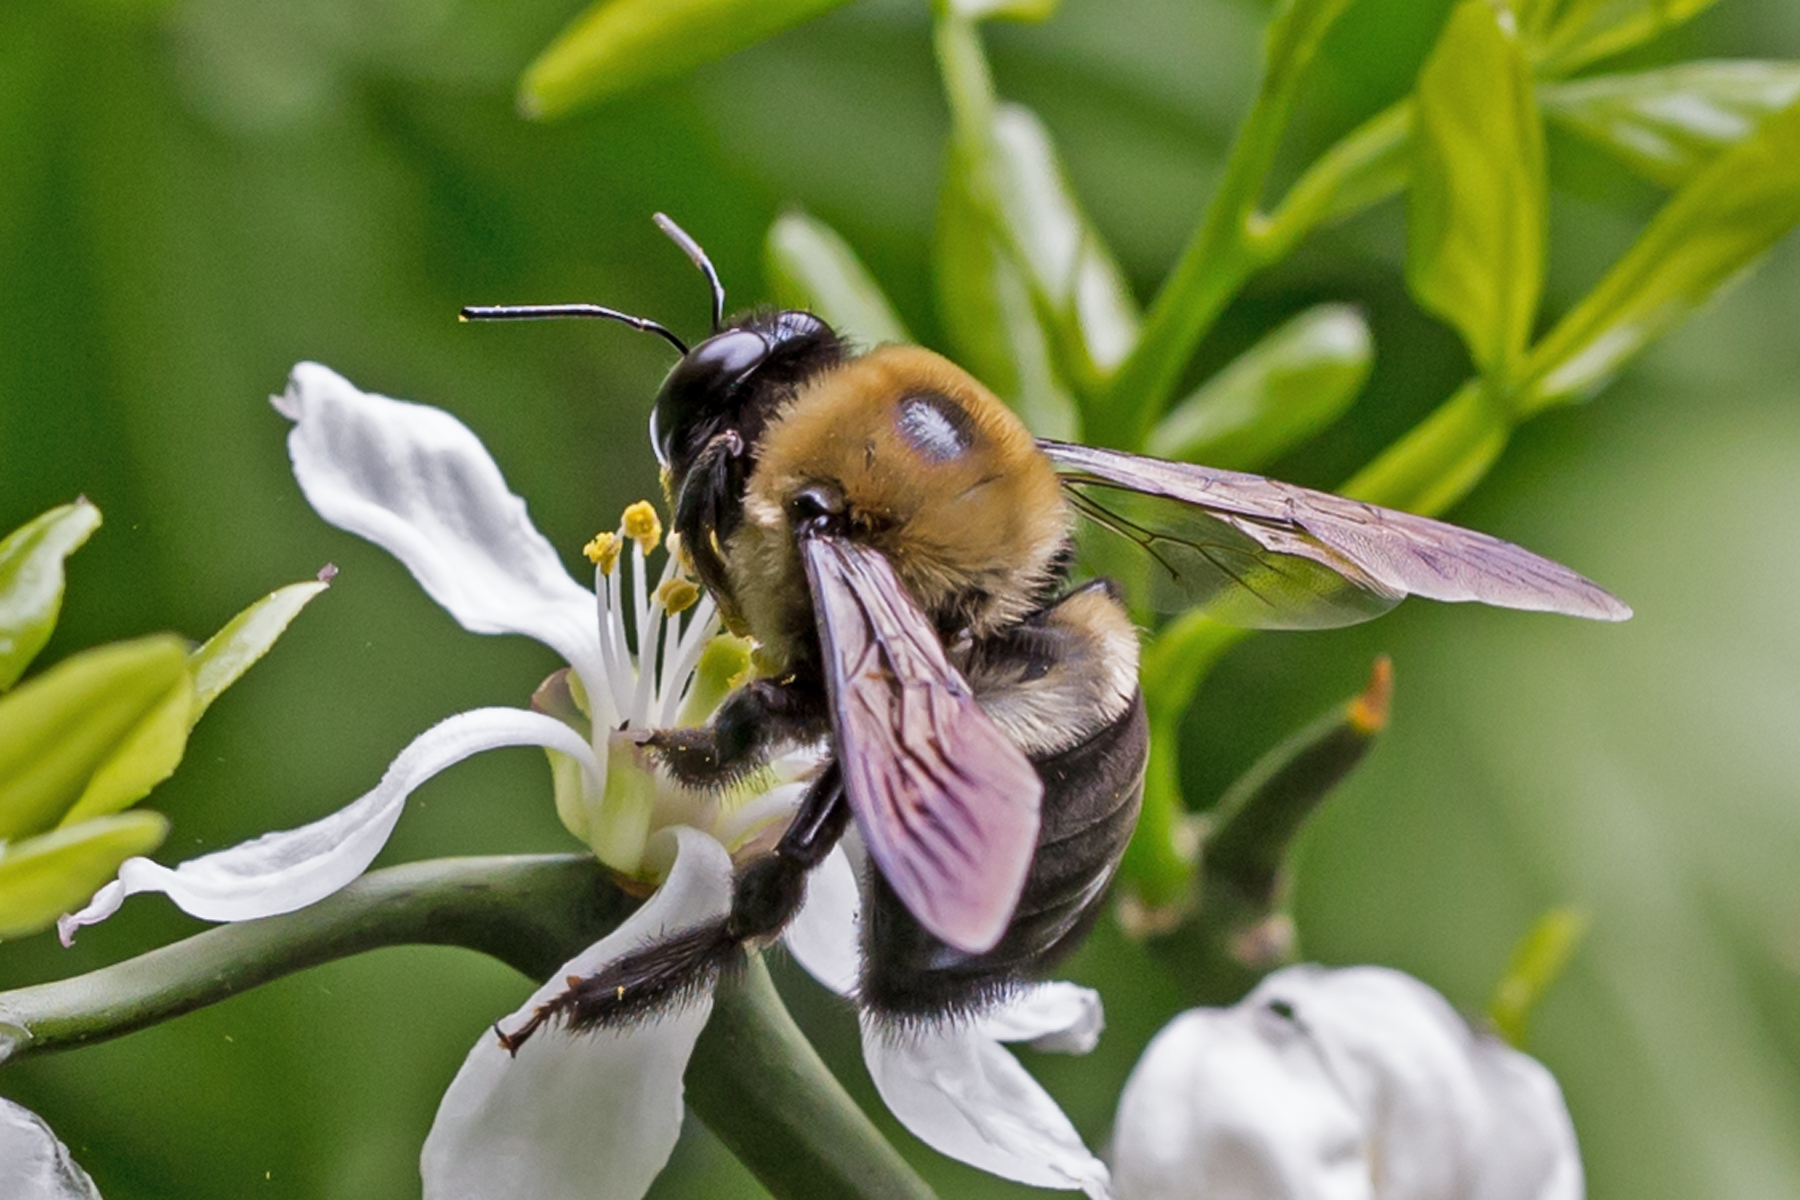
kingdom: Animalia
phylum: Arthropoda
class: Insecta
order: Hymenoptera
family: Apidae
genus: Xylocopa
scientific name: Xylocopa virginica
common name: Carpenter bee
